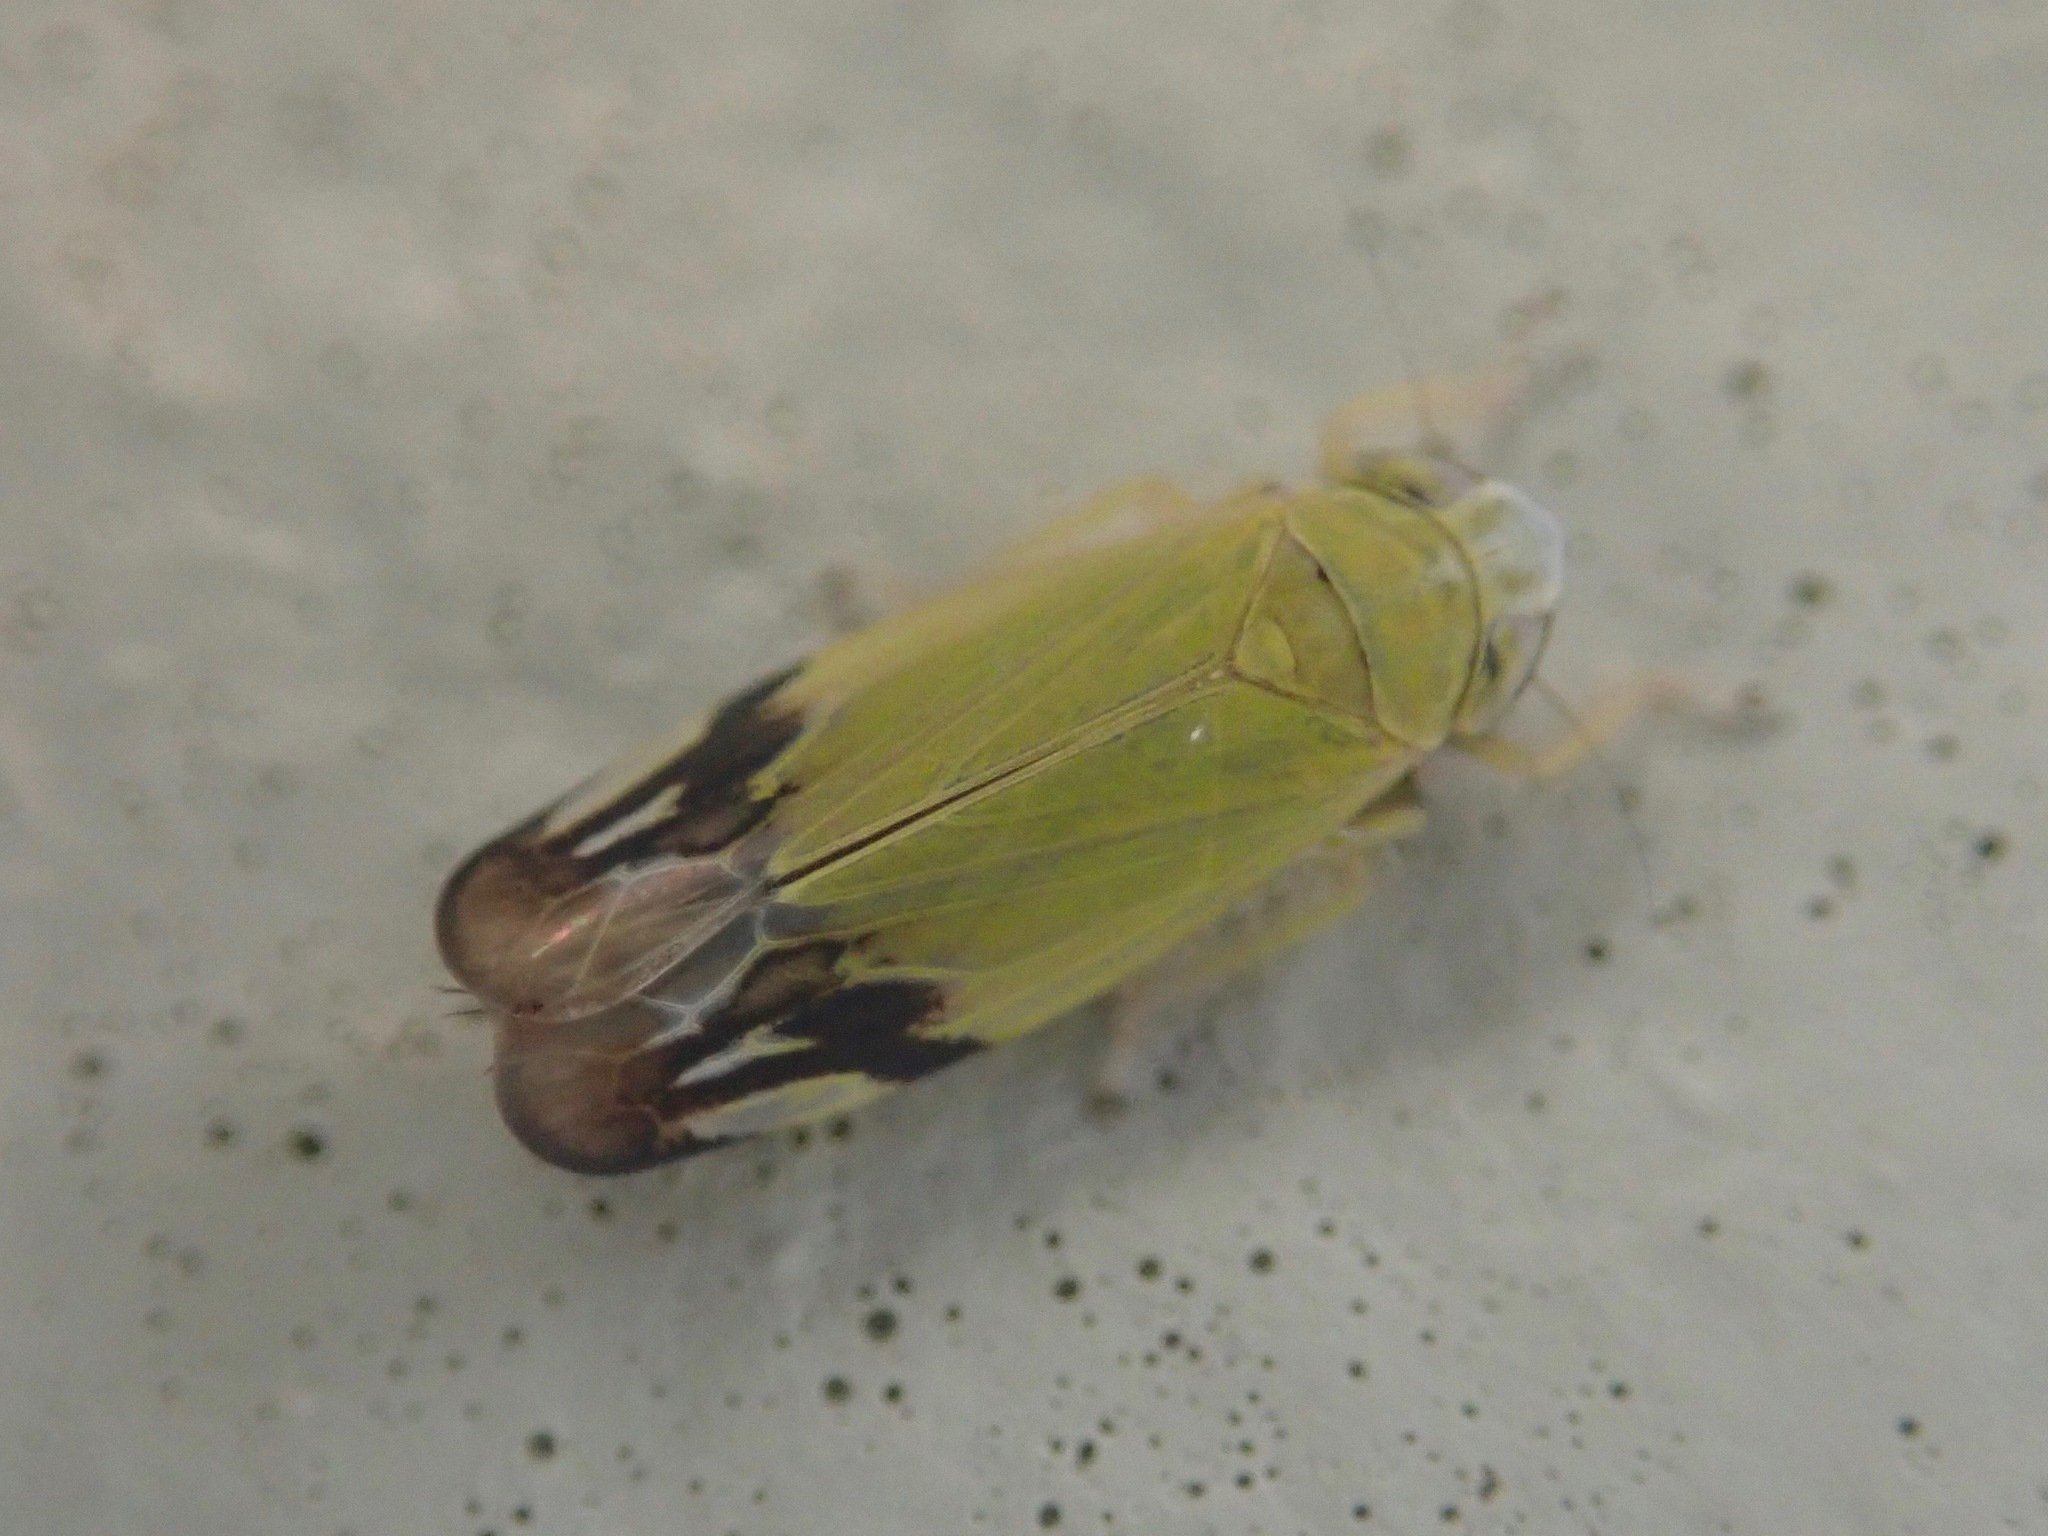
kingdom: Animalia
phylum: Arthropoda
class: Insecta
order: Hemiptera
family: Cicadellidae
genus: Deltanus
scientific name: Deltanus bicolor
